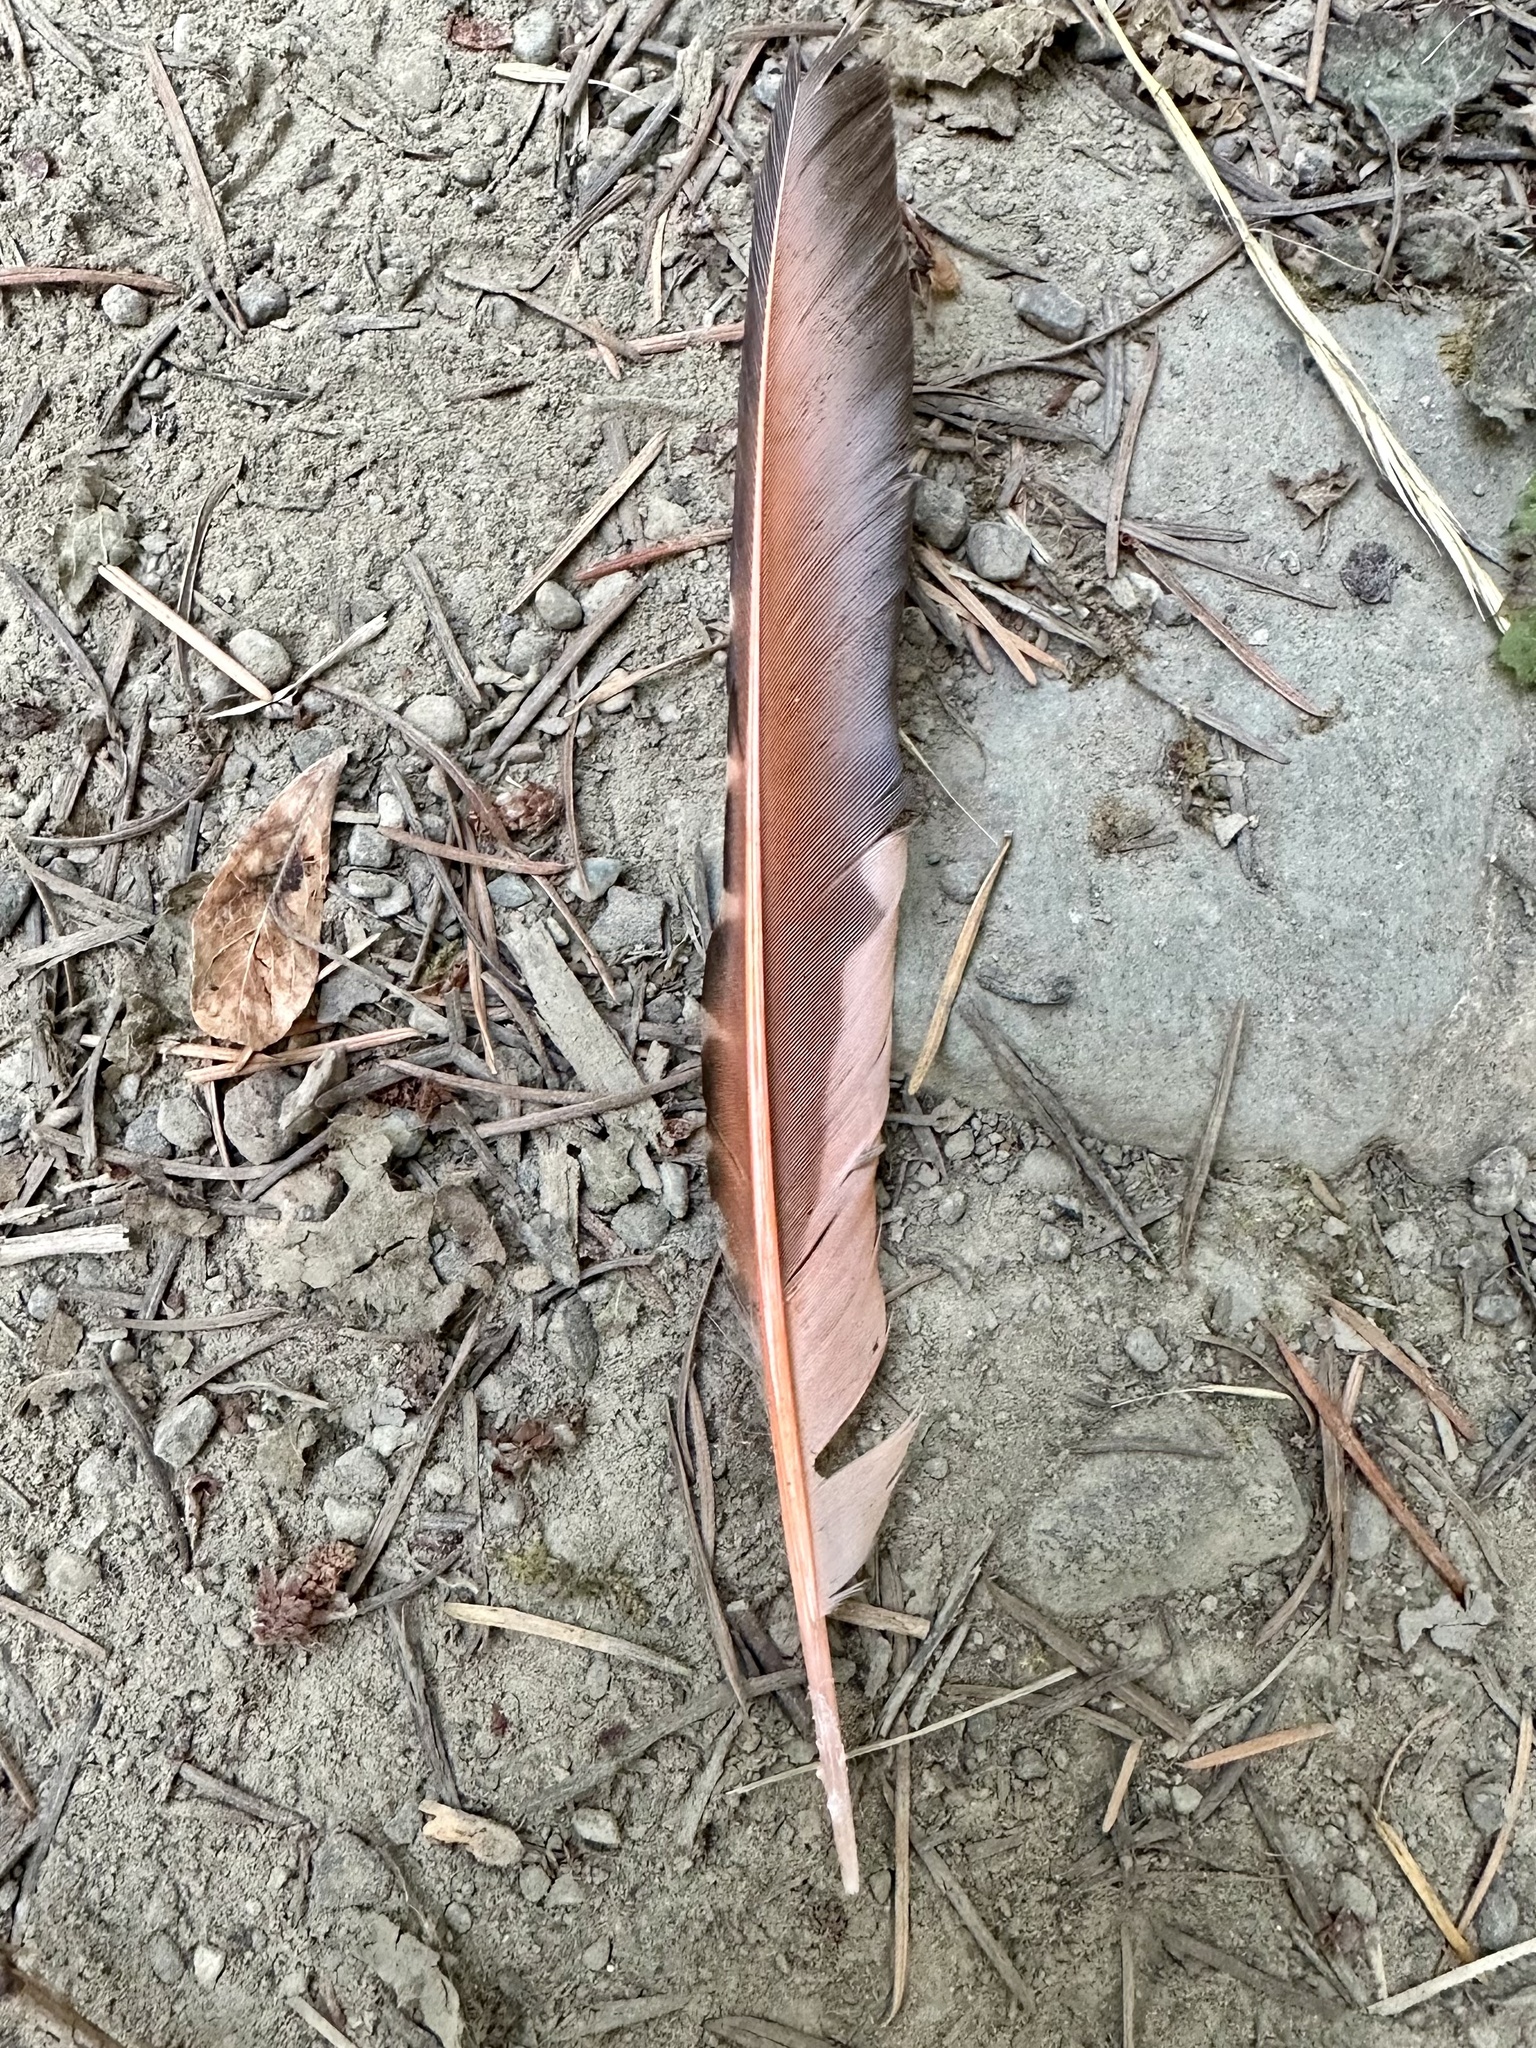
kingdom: Animalia
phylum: Chordata
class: Aves
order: Piciformes
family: Picidae
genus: Colaptes
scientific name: Colaptes auratus
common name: Northern flicker
